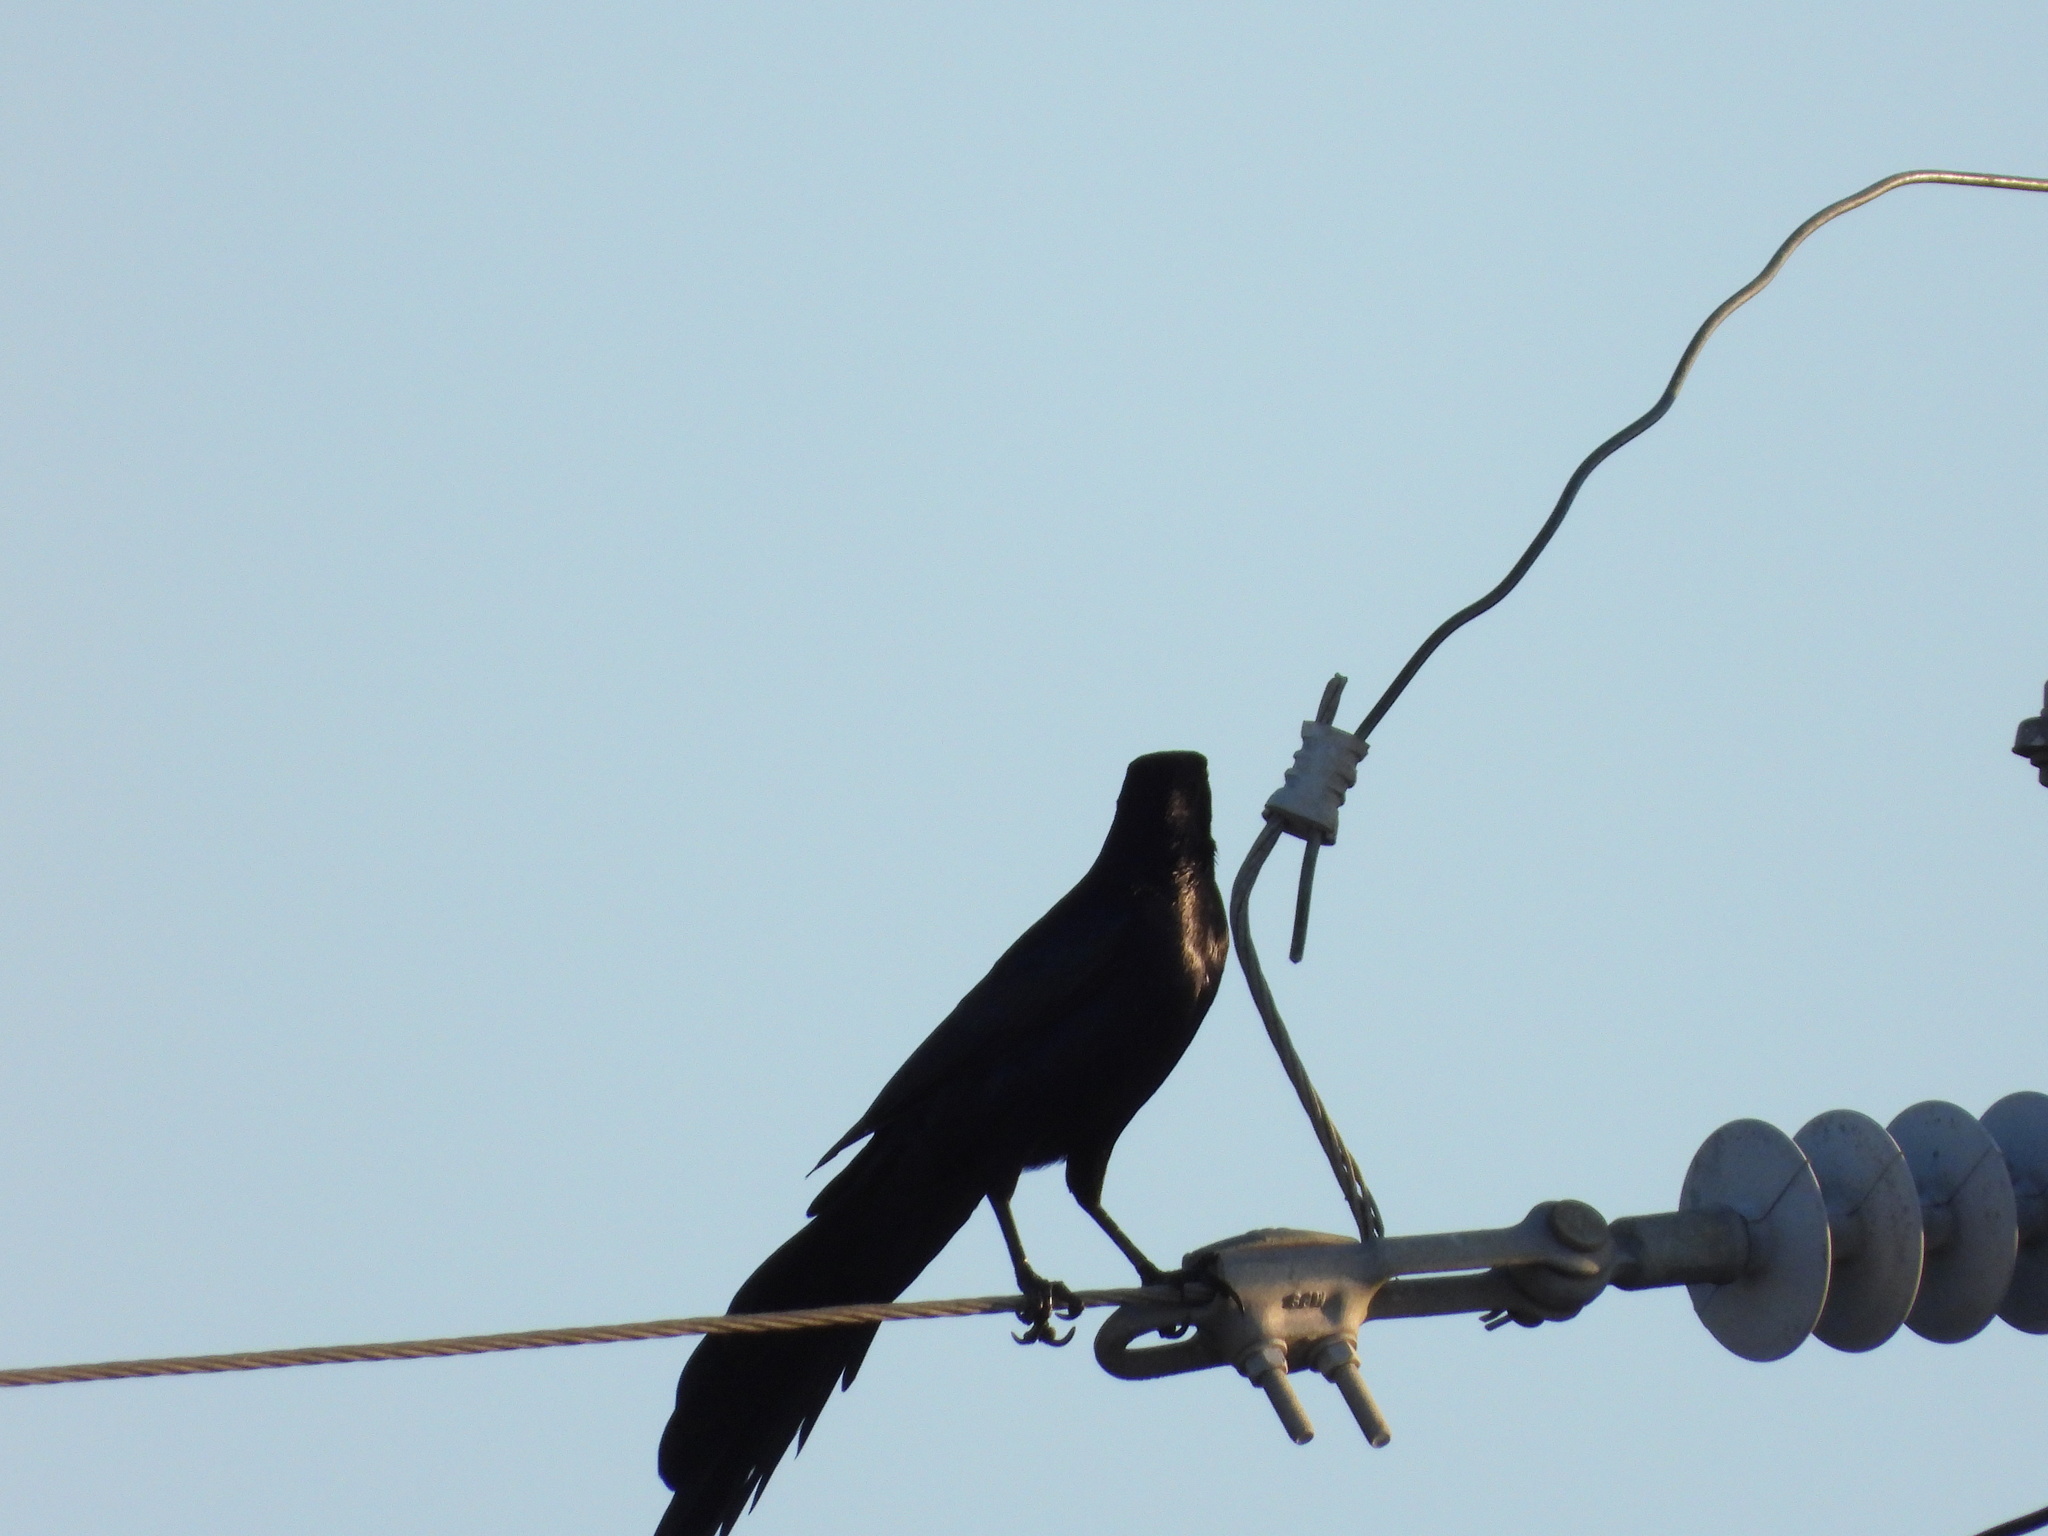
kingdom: Animalia
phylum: Chordata
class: Aves
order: Passeriformes
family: Icteridae
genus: Quiscalus
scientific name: Quiscalus mexicanus
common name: Great-tailed grackle
